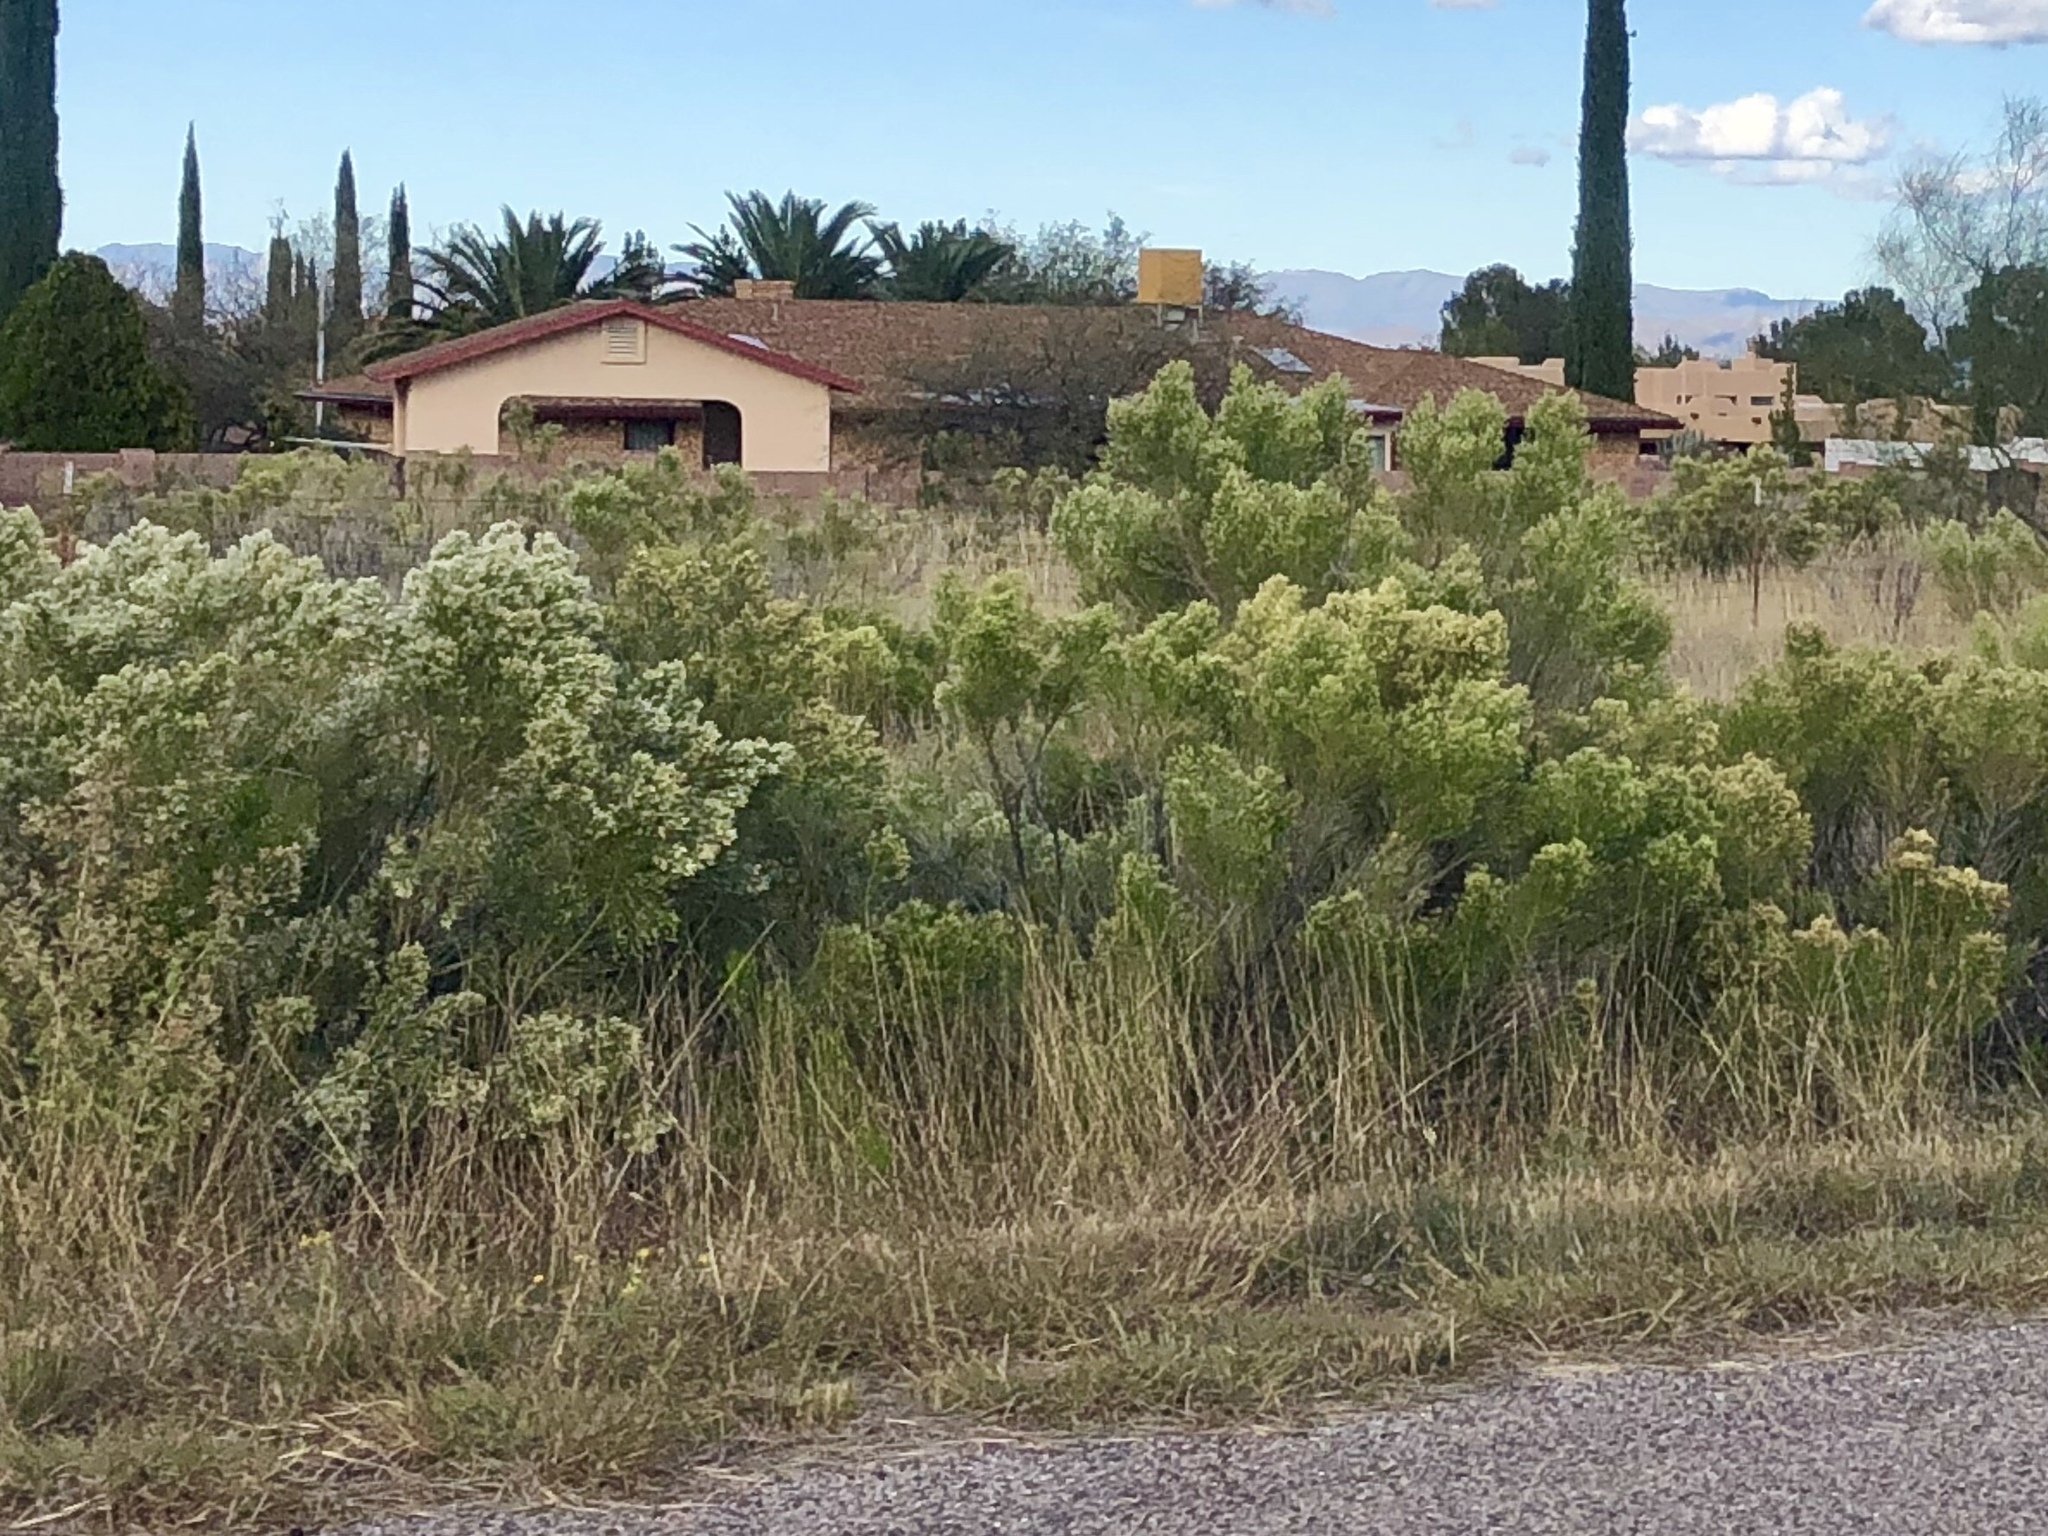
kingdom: Plantae
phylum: Tracheophyta
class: Magnoliopsida
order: Asterales
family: Asteraceae
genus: Baccharis
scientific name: Baccharis sarothroides
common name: Desert-broom
